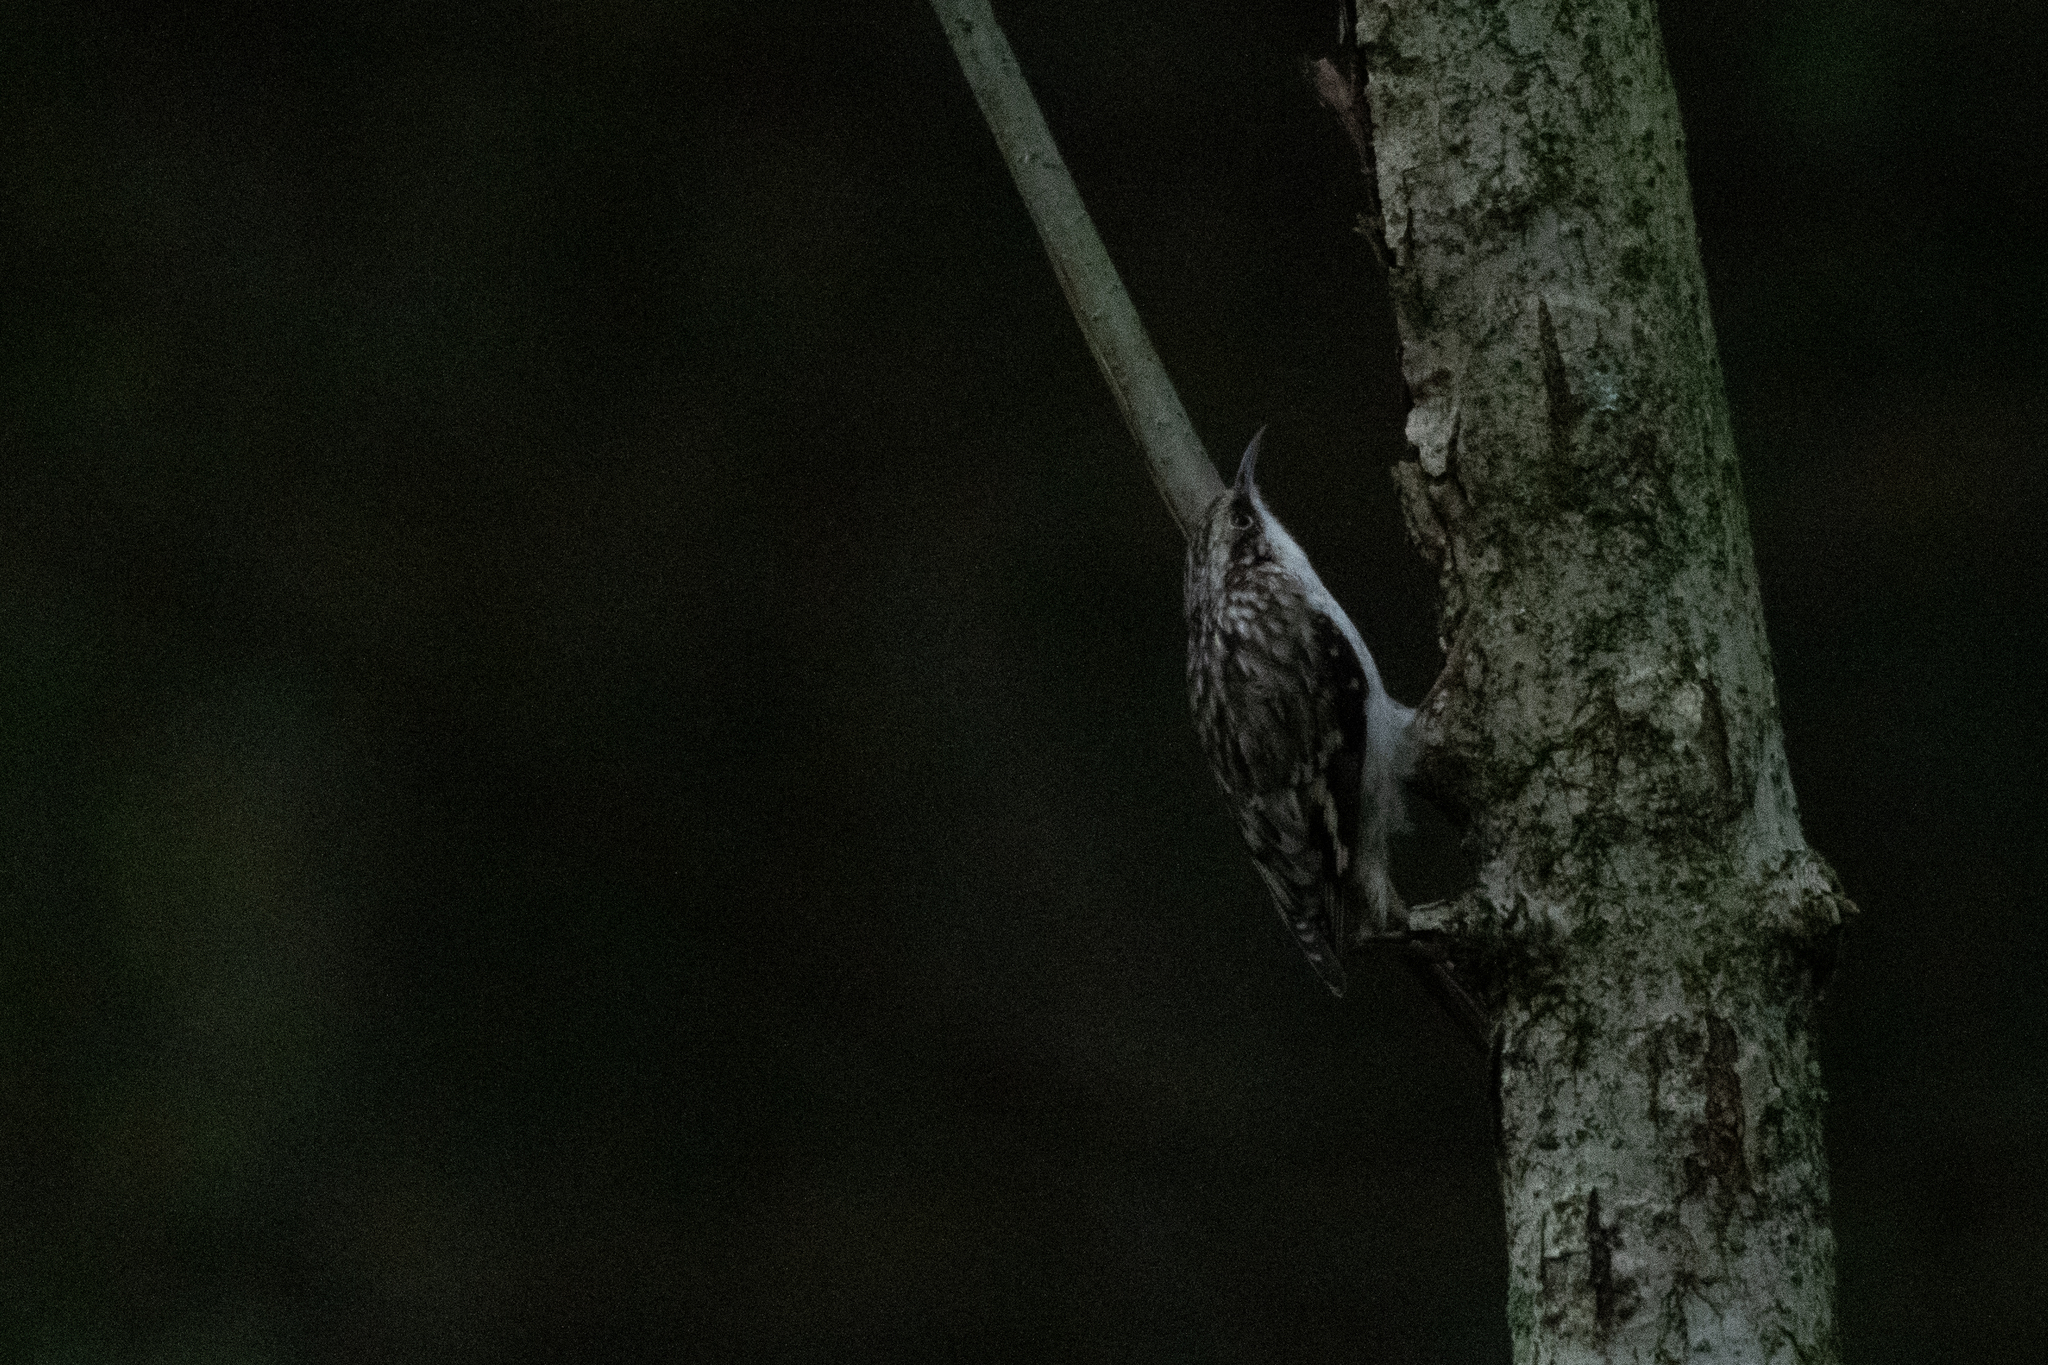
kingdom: Animalia
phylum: Chordata
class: Aves
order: Passeriformes
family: Certhiidae
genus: Certhia
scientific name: Certhia americana
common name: Brown creeper
